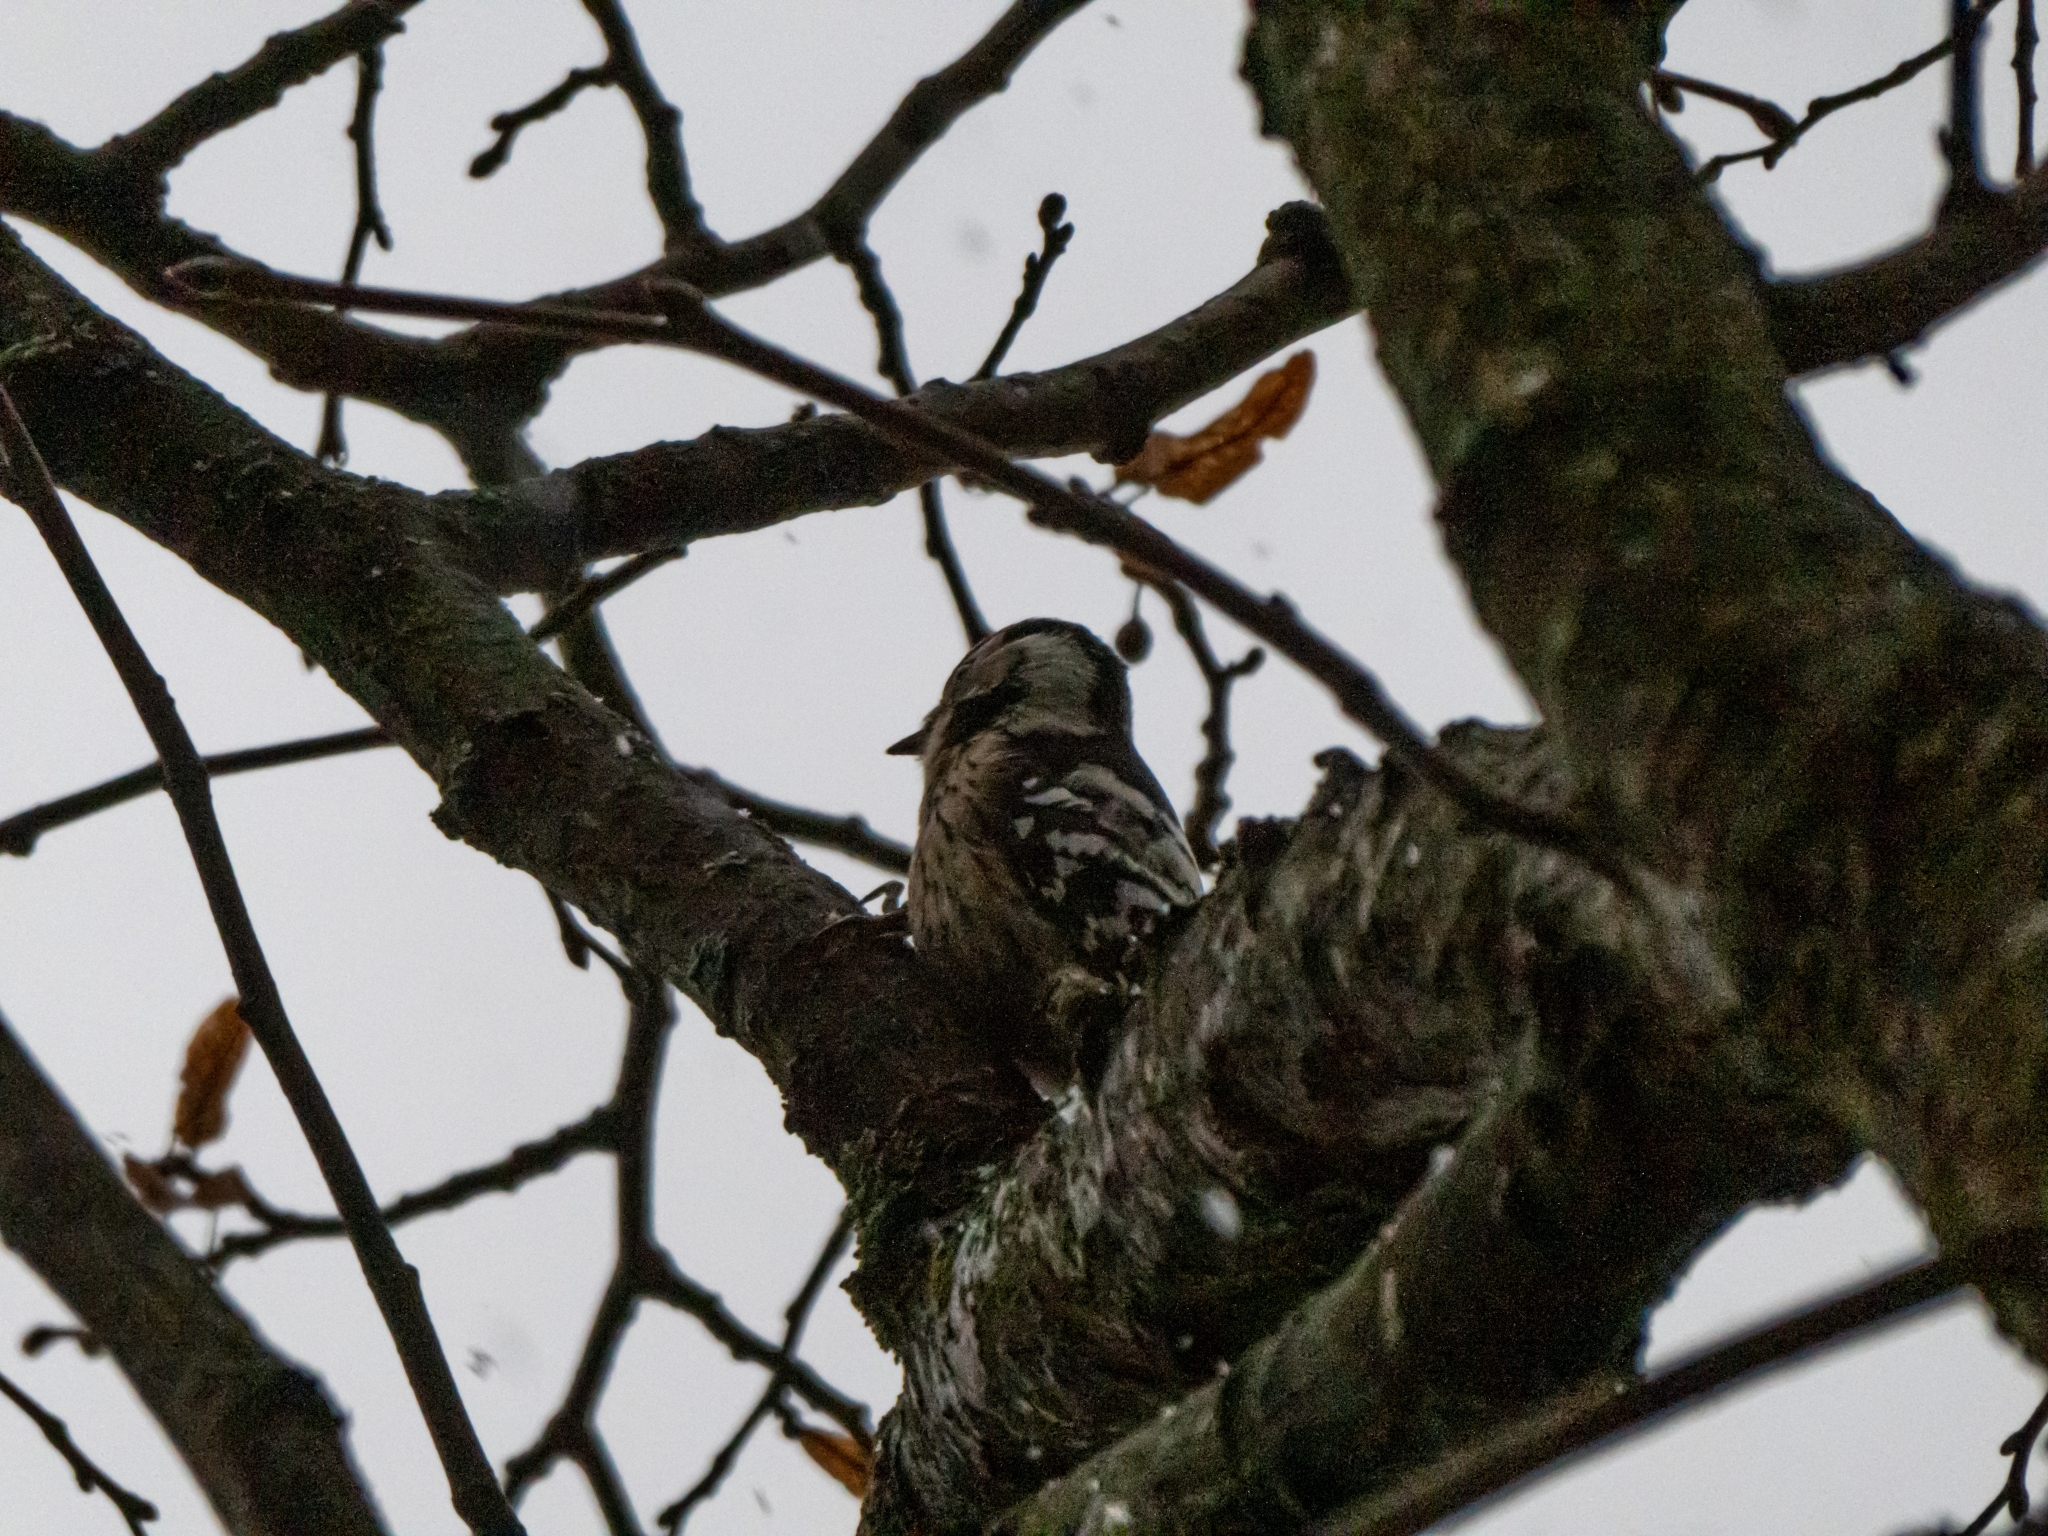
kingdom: Animalia
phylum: Chordata
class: Aves
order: Piciformes
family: Picidae
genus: Dryobates
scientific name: Dryobates minor
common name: Lesser spotted woodpecker
